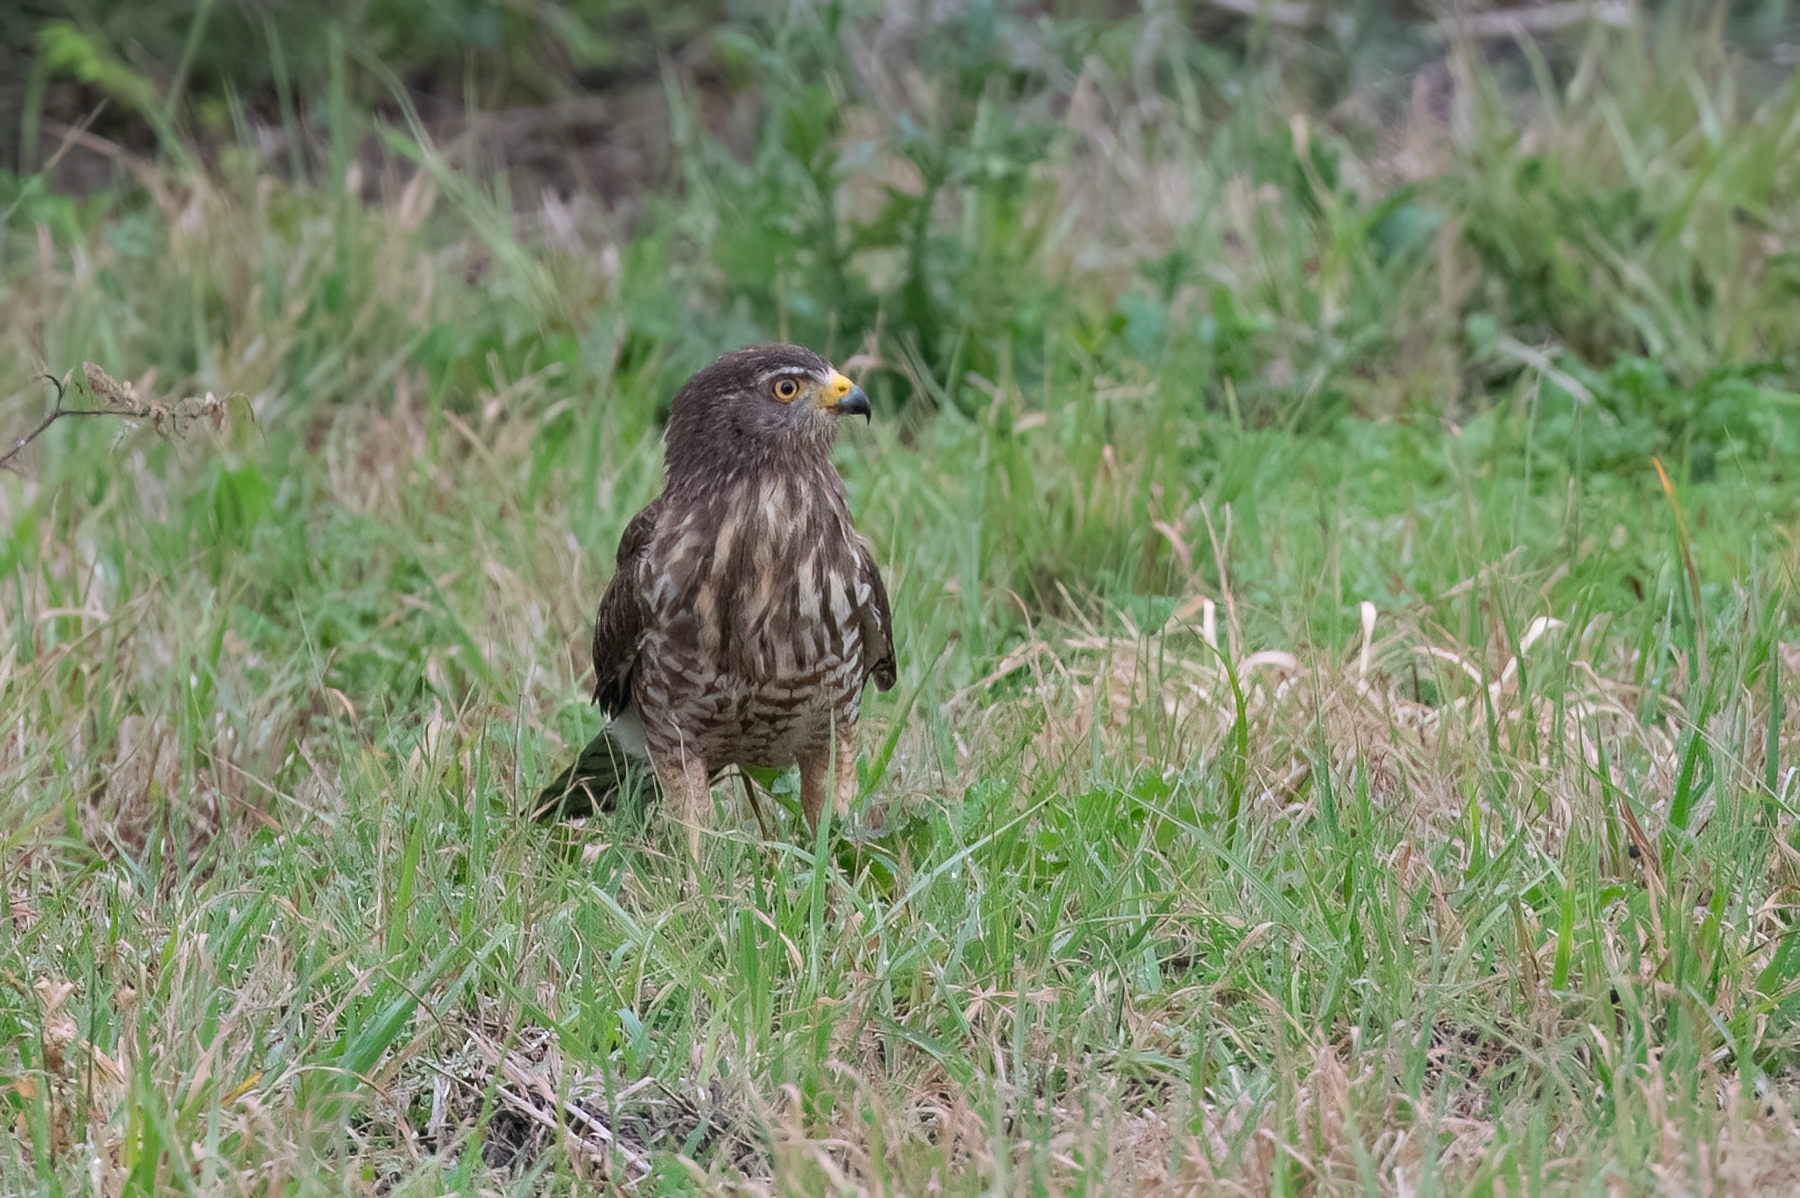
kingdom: Animalia
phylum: Chordata
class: Aves
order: Accipitriformes
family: Accipitridae
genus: Rupornis
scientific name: Rupornis magnirostris
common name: Roadside hawk
